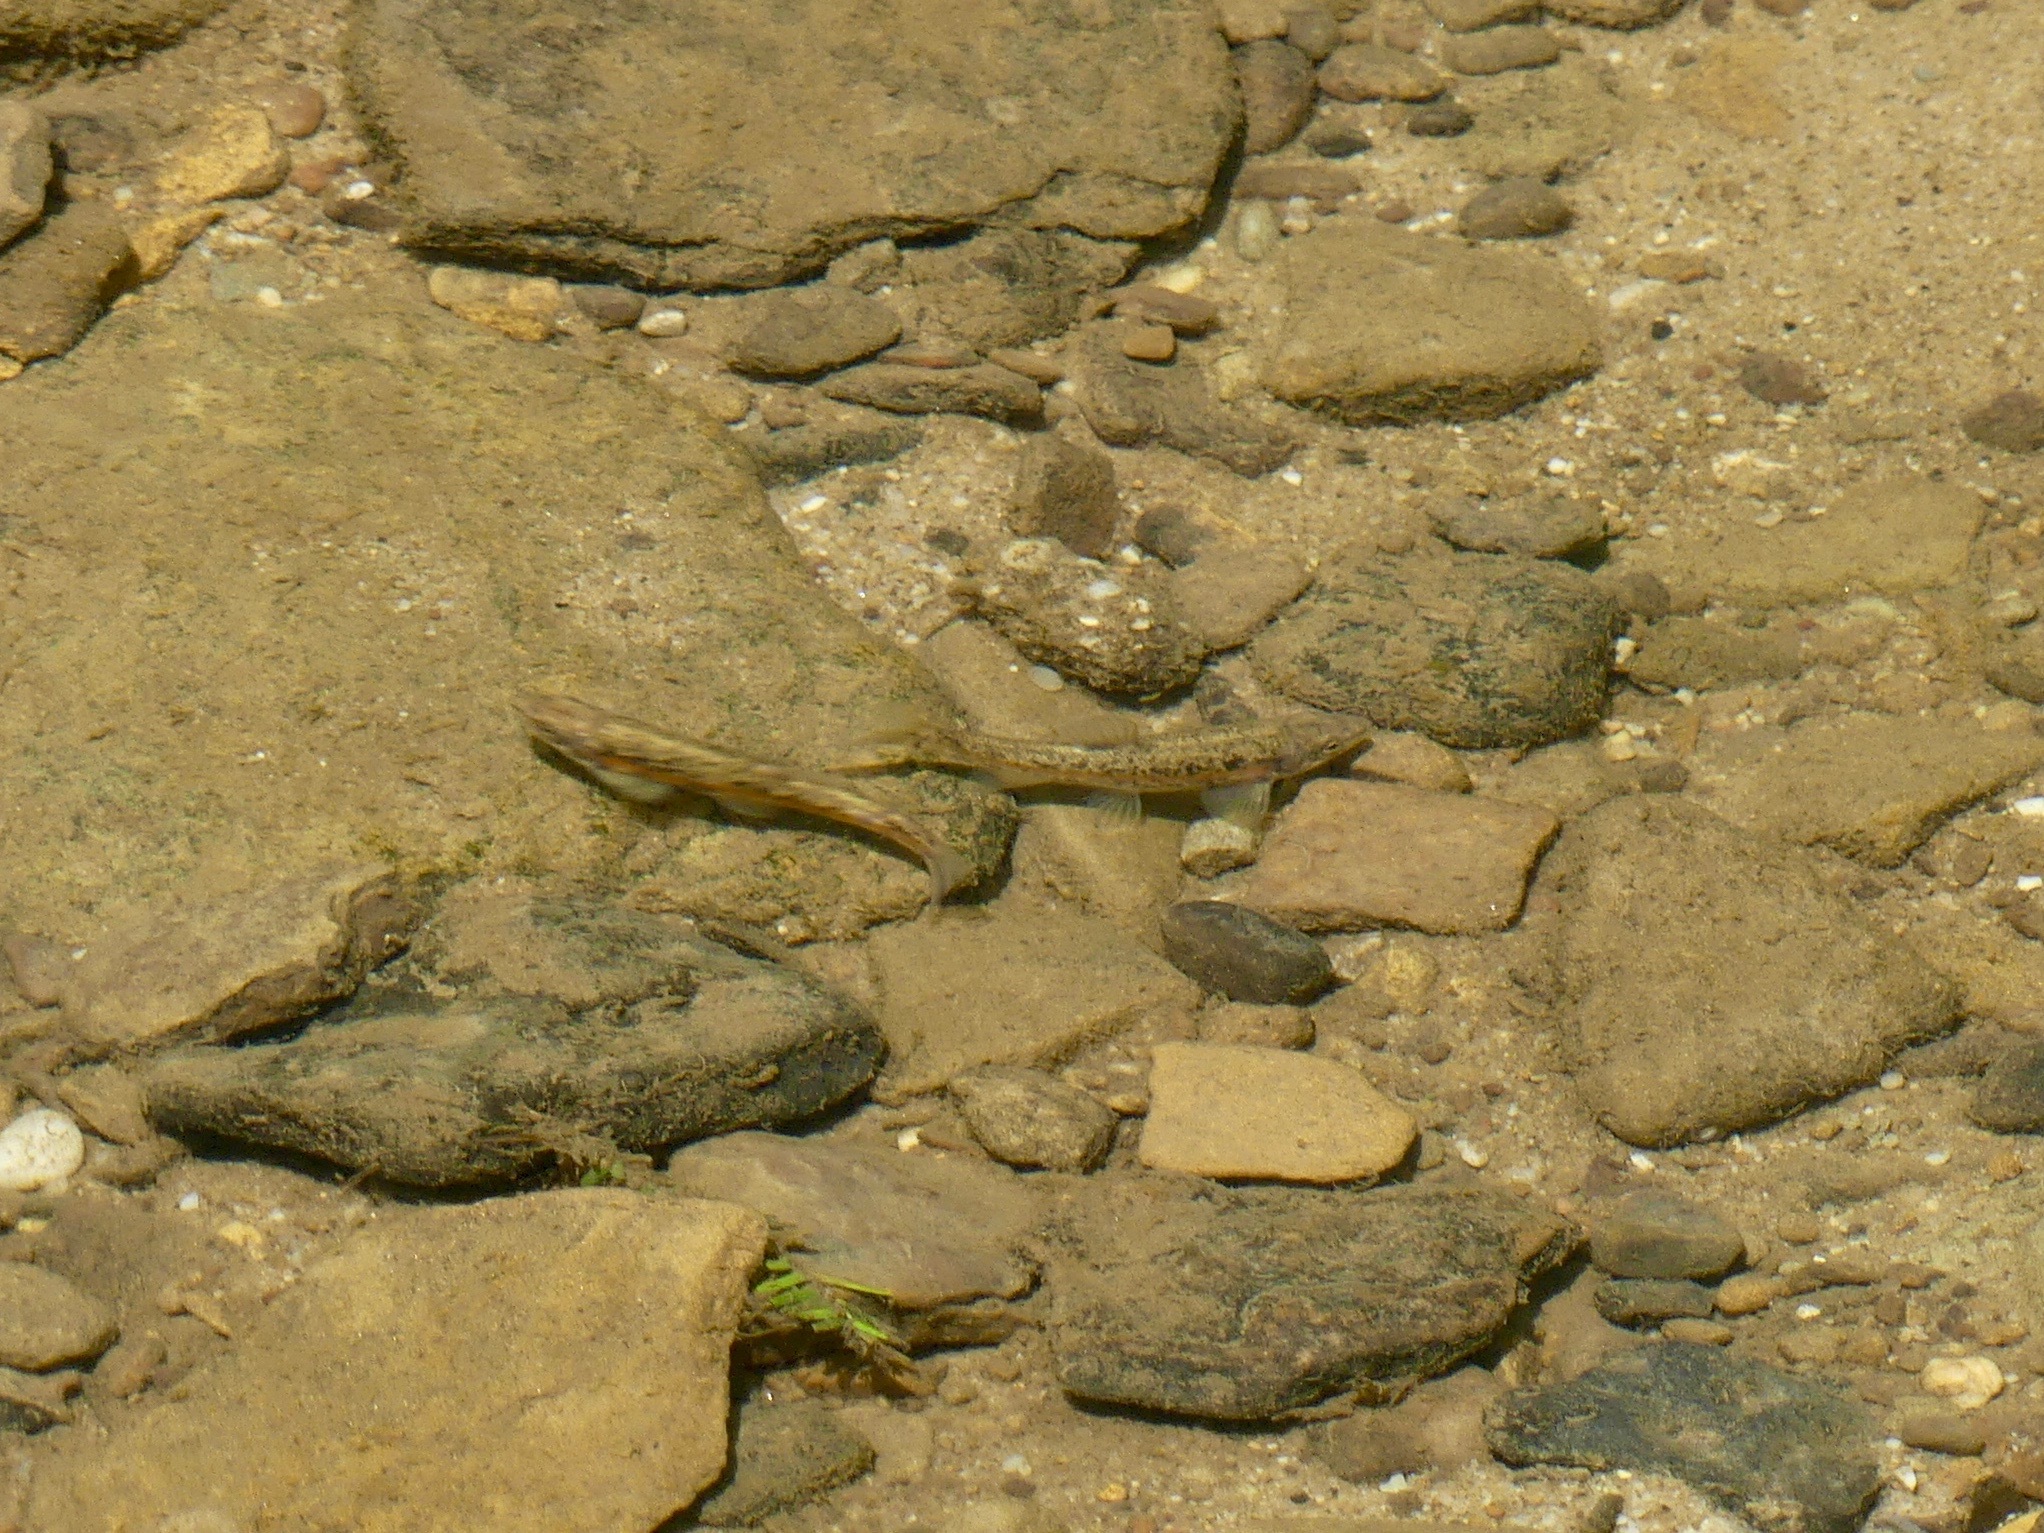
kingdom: Animalia
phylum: Chordata
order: Cypriniformes
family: Cyprinidae
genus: Rhinichthys
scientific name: Rhinichthys obtusus
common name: Western blacknose dace
